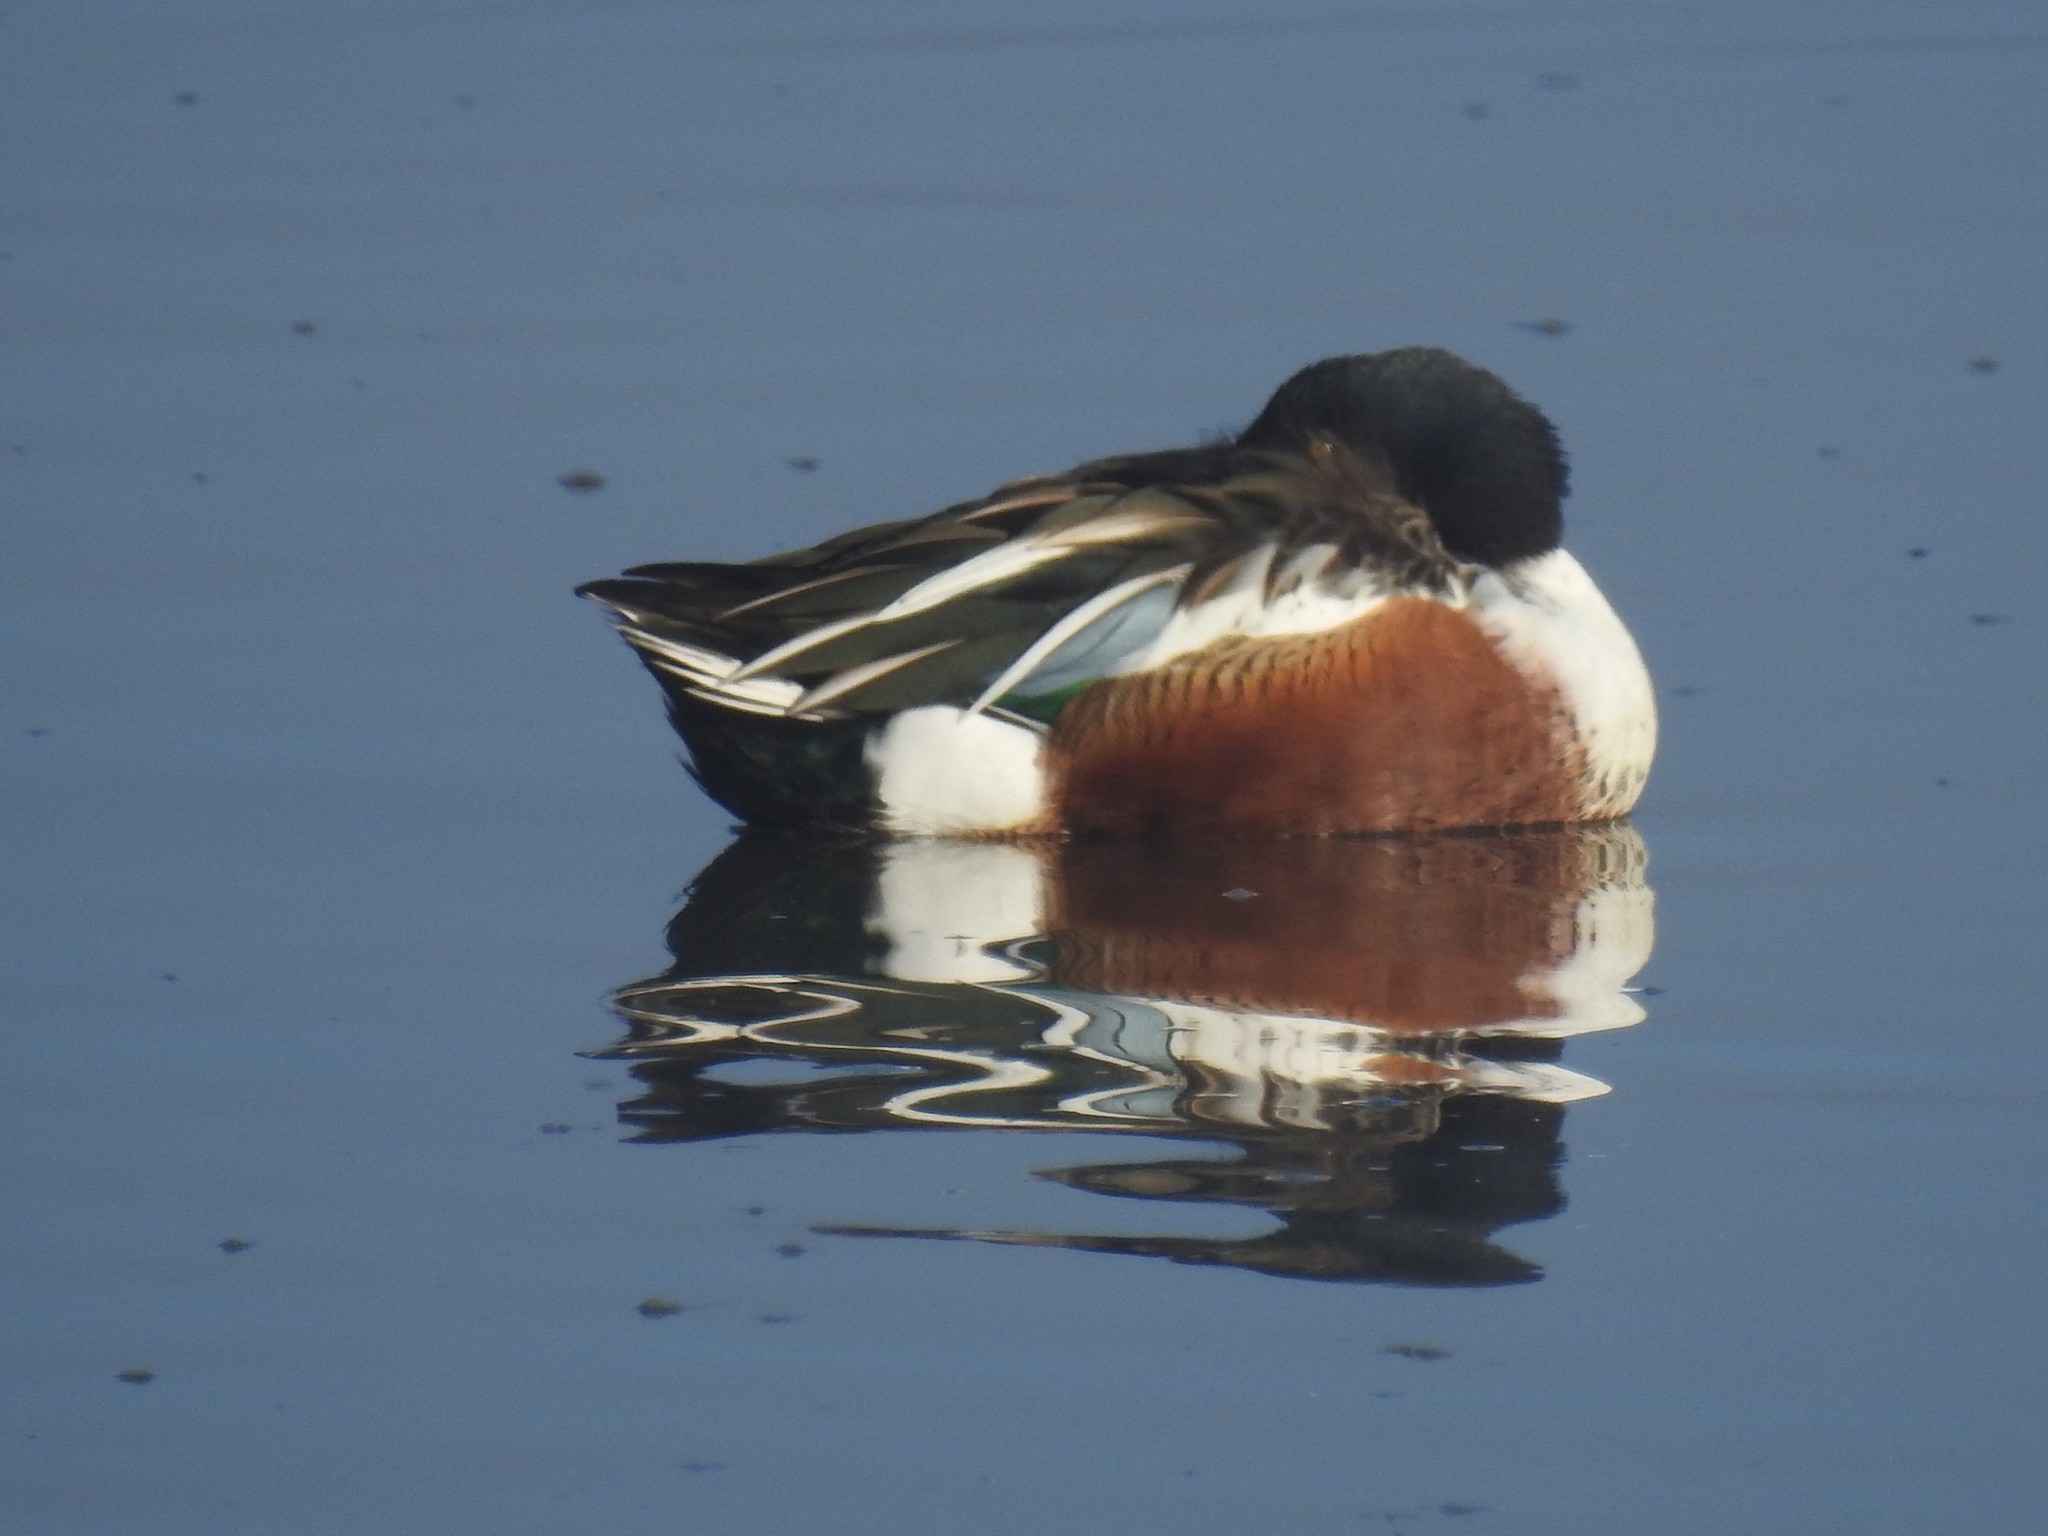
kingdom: Animalia
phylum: Chordata
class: Aves
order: Anseriformes
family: Anatidae
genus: Spatula
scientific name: Spatula clypeata
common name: Northern shoveler
